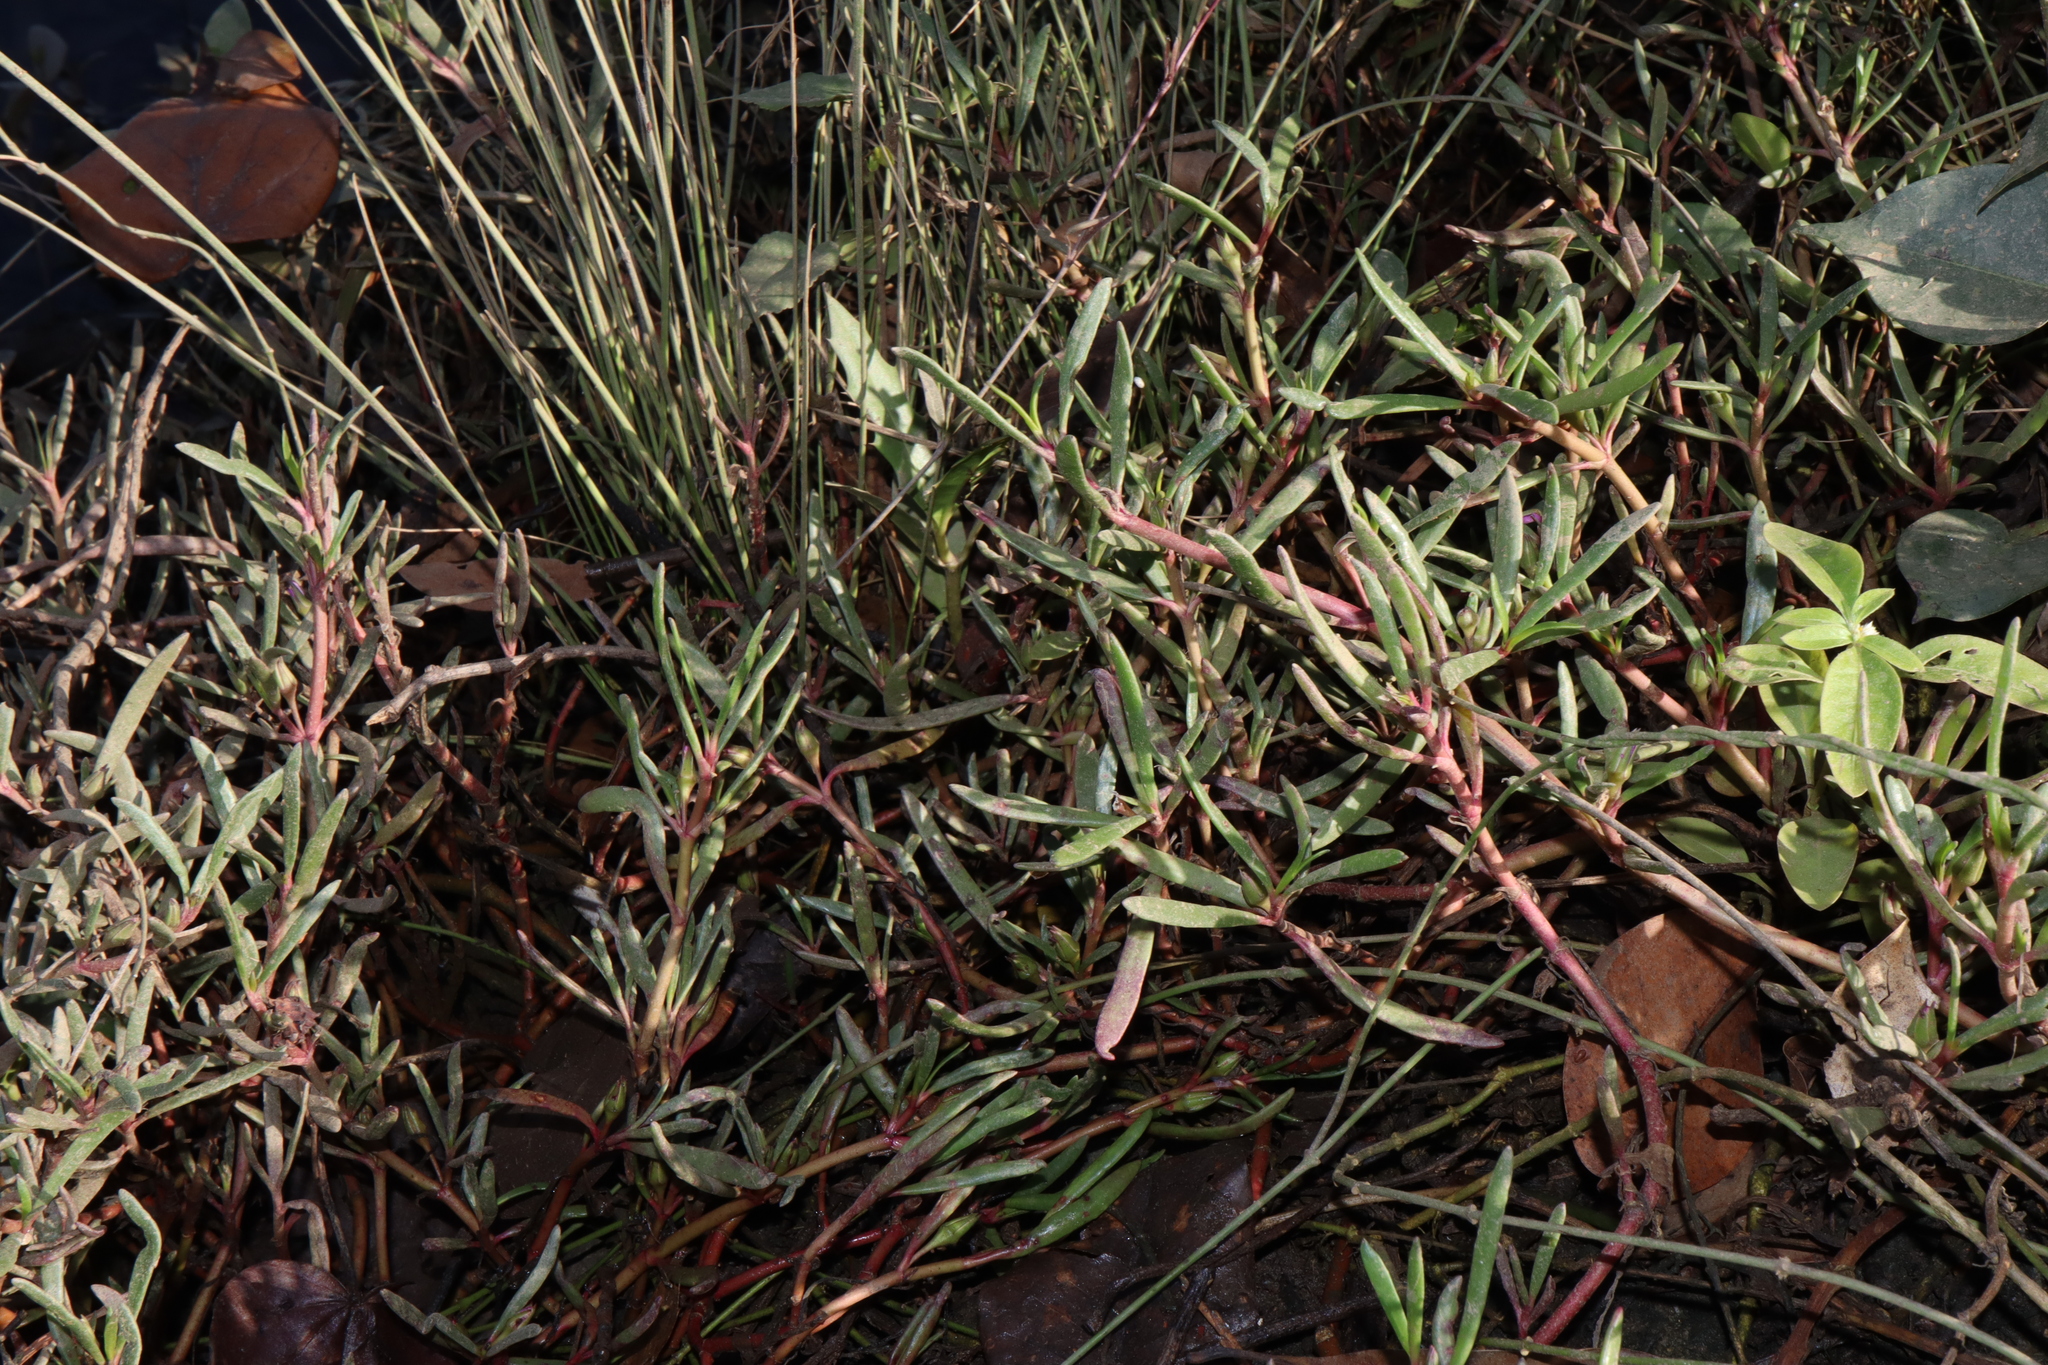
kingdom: Plantae
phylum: Tracheophyta
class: Magnoliopsida
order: Caryophyllales
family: Aizoaceae
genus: Sesuvium
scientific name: Sesuvium portulacastrum
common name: Sea-purslane
